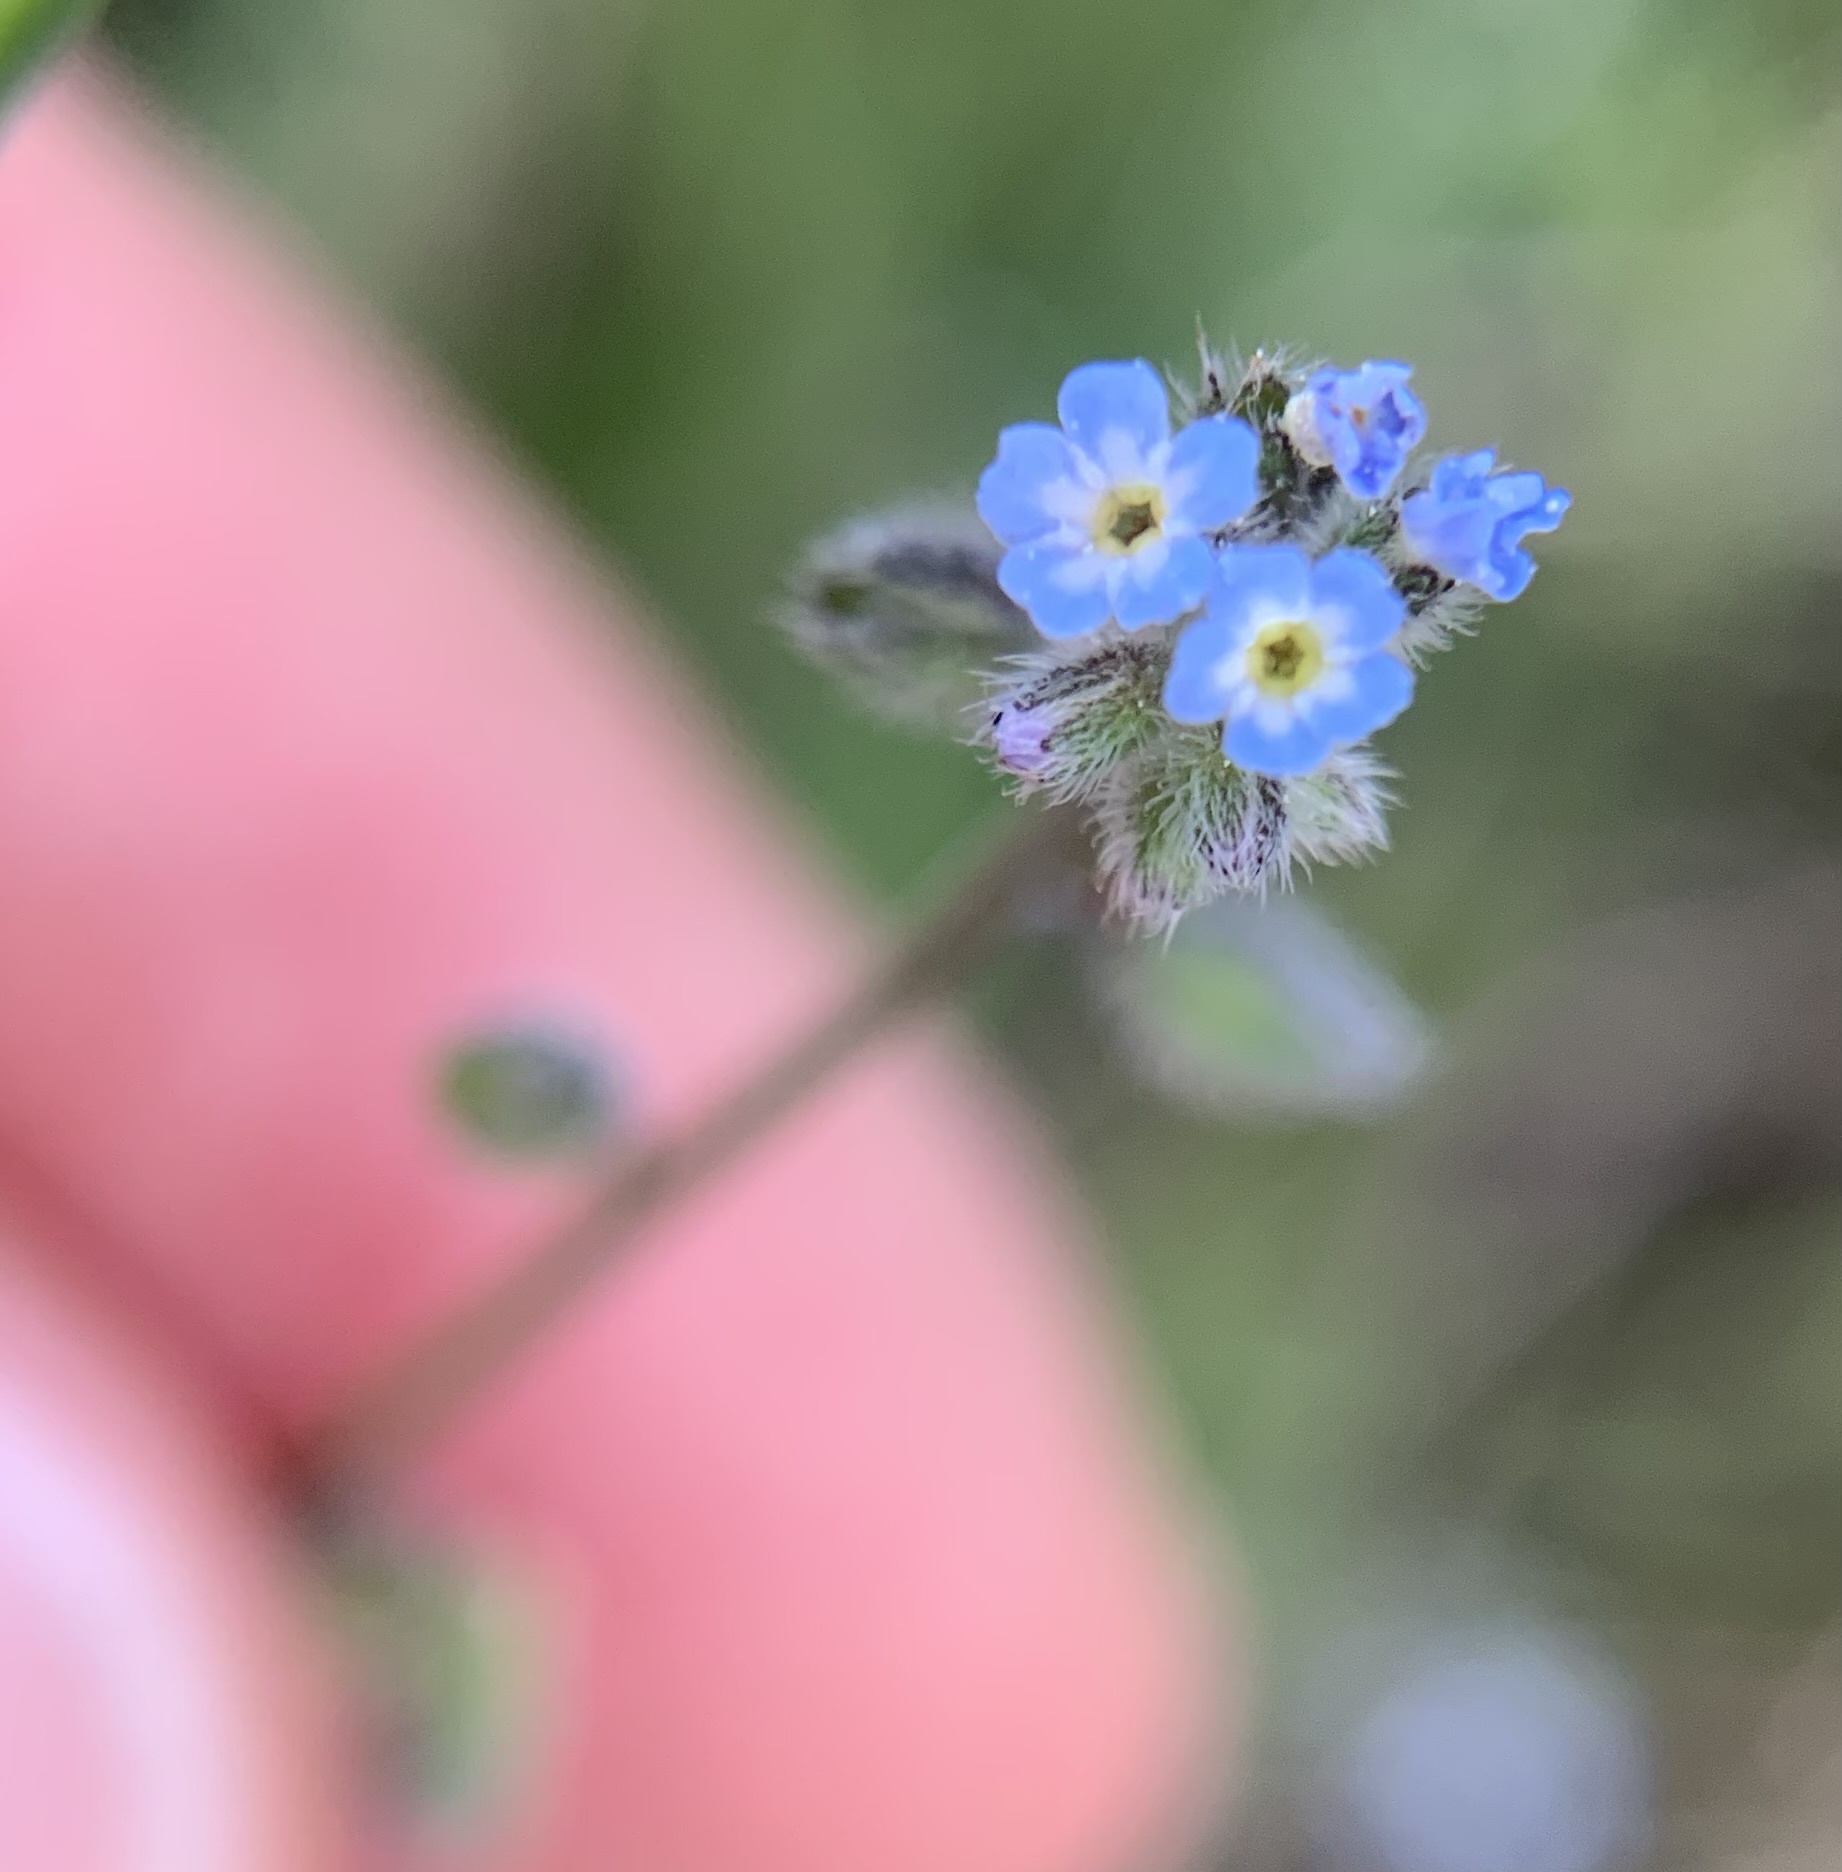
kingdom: Plantae
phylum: Tracheophyta
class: Magnoliopsida
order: Boraginales
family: Boraginaceae
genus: Myosotis
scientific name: Myosotis ramosissima
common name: Early forget-me-not
